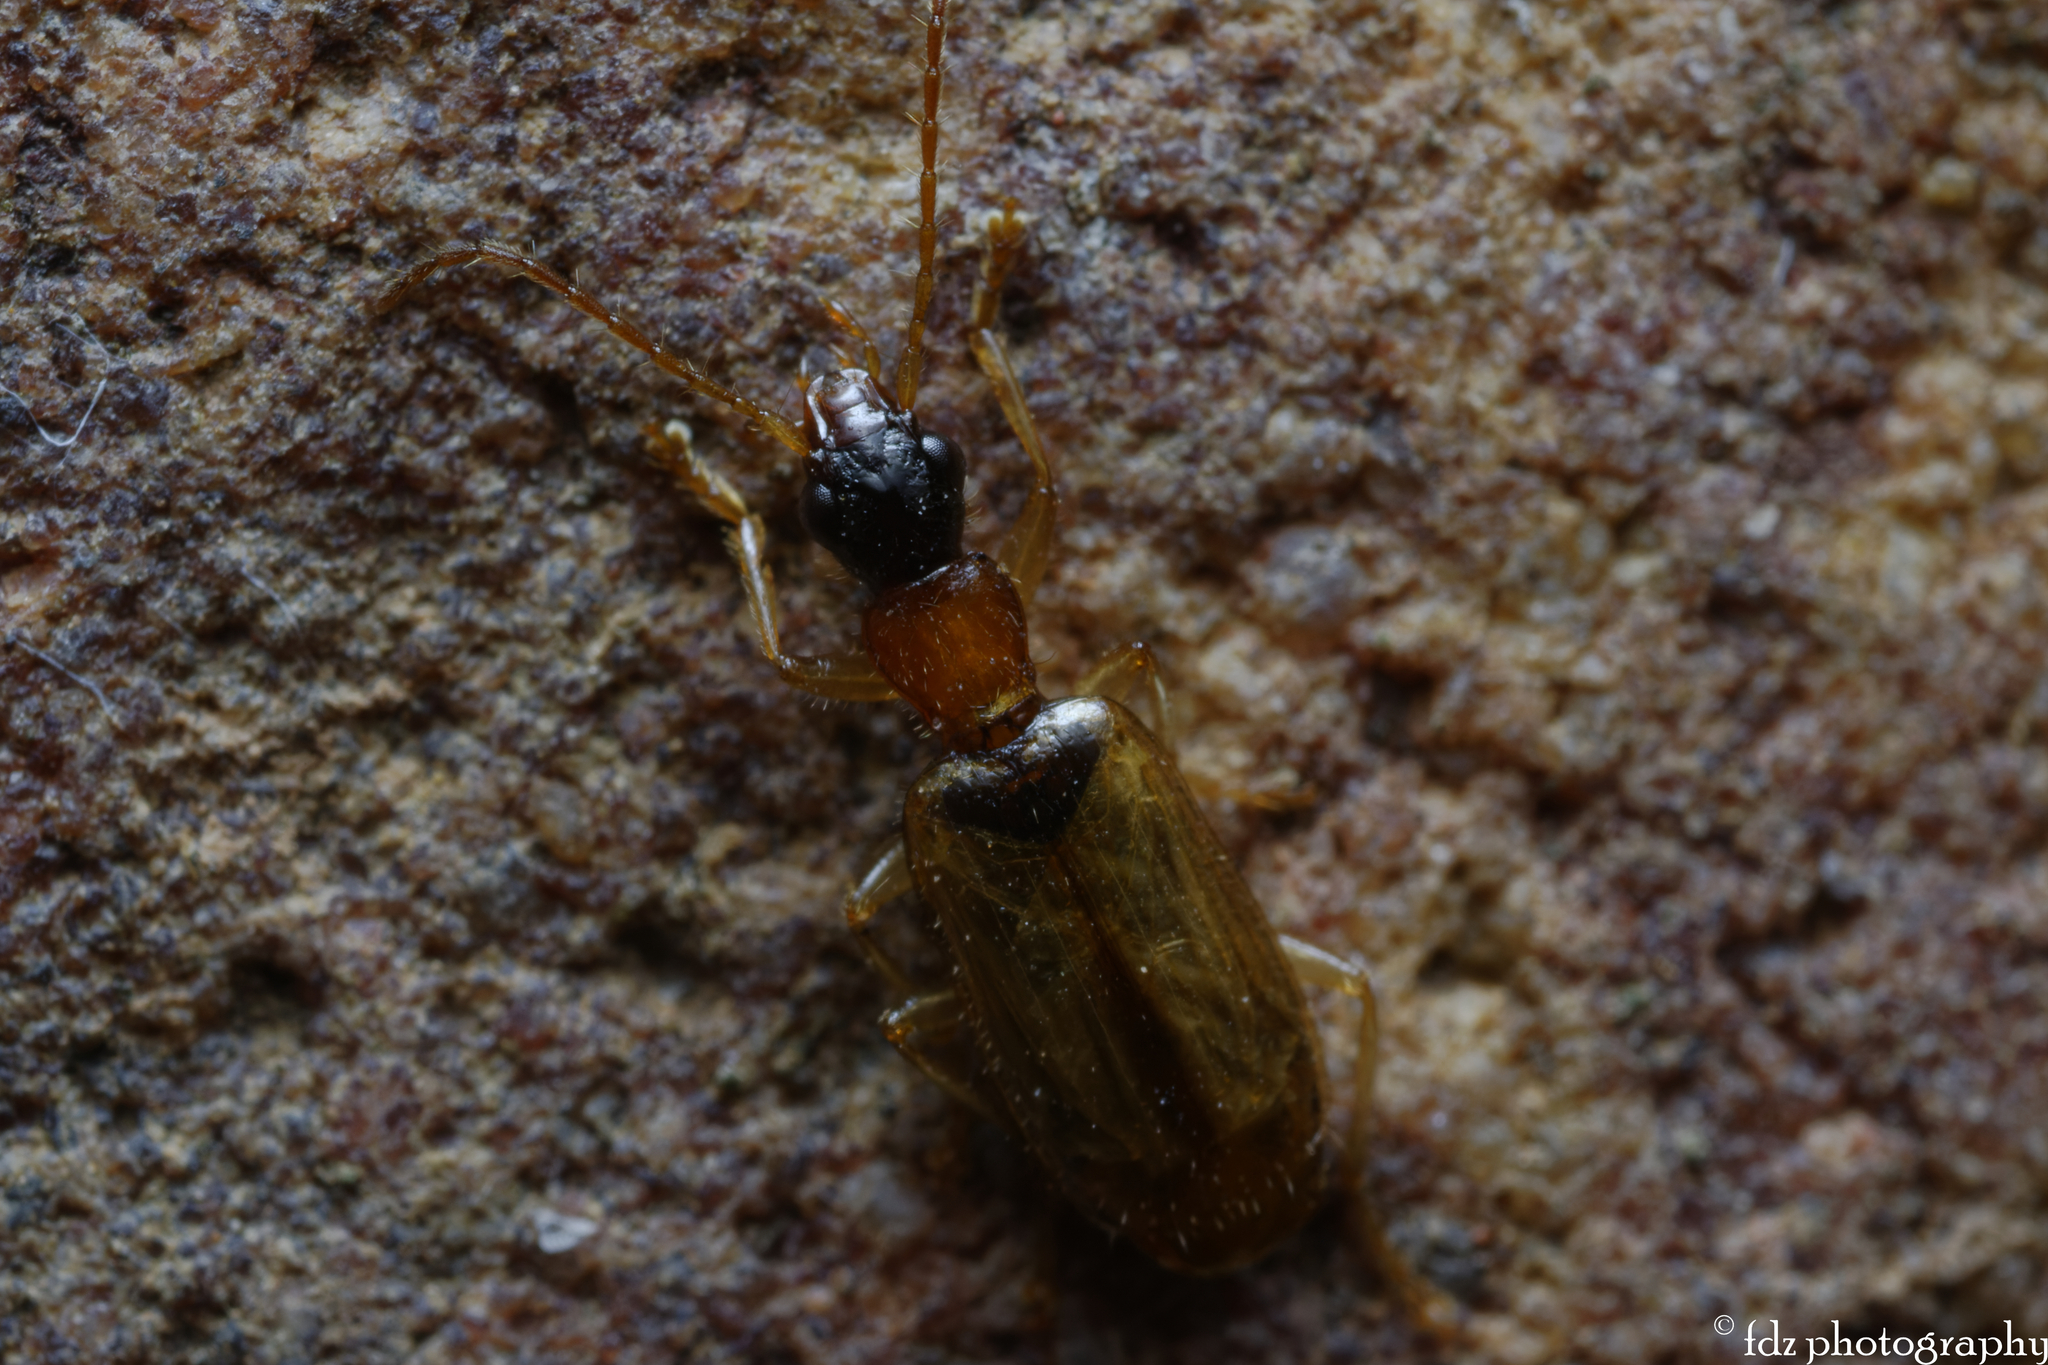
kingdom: Animalia
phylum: Arthropoda
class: Insecta
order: Coleoptera
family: Carabidae
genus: Demetrias
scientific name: Demetrias atricapillus
